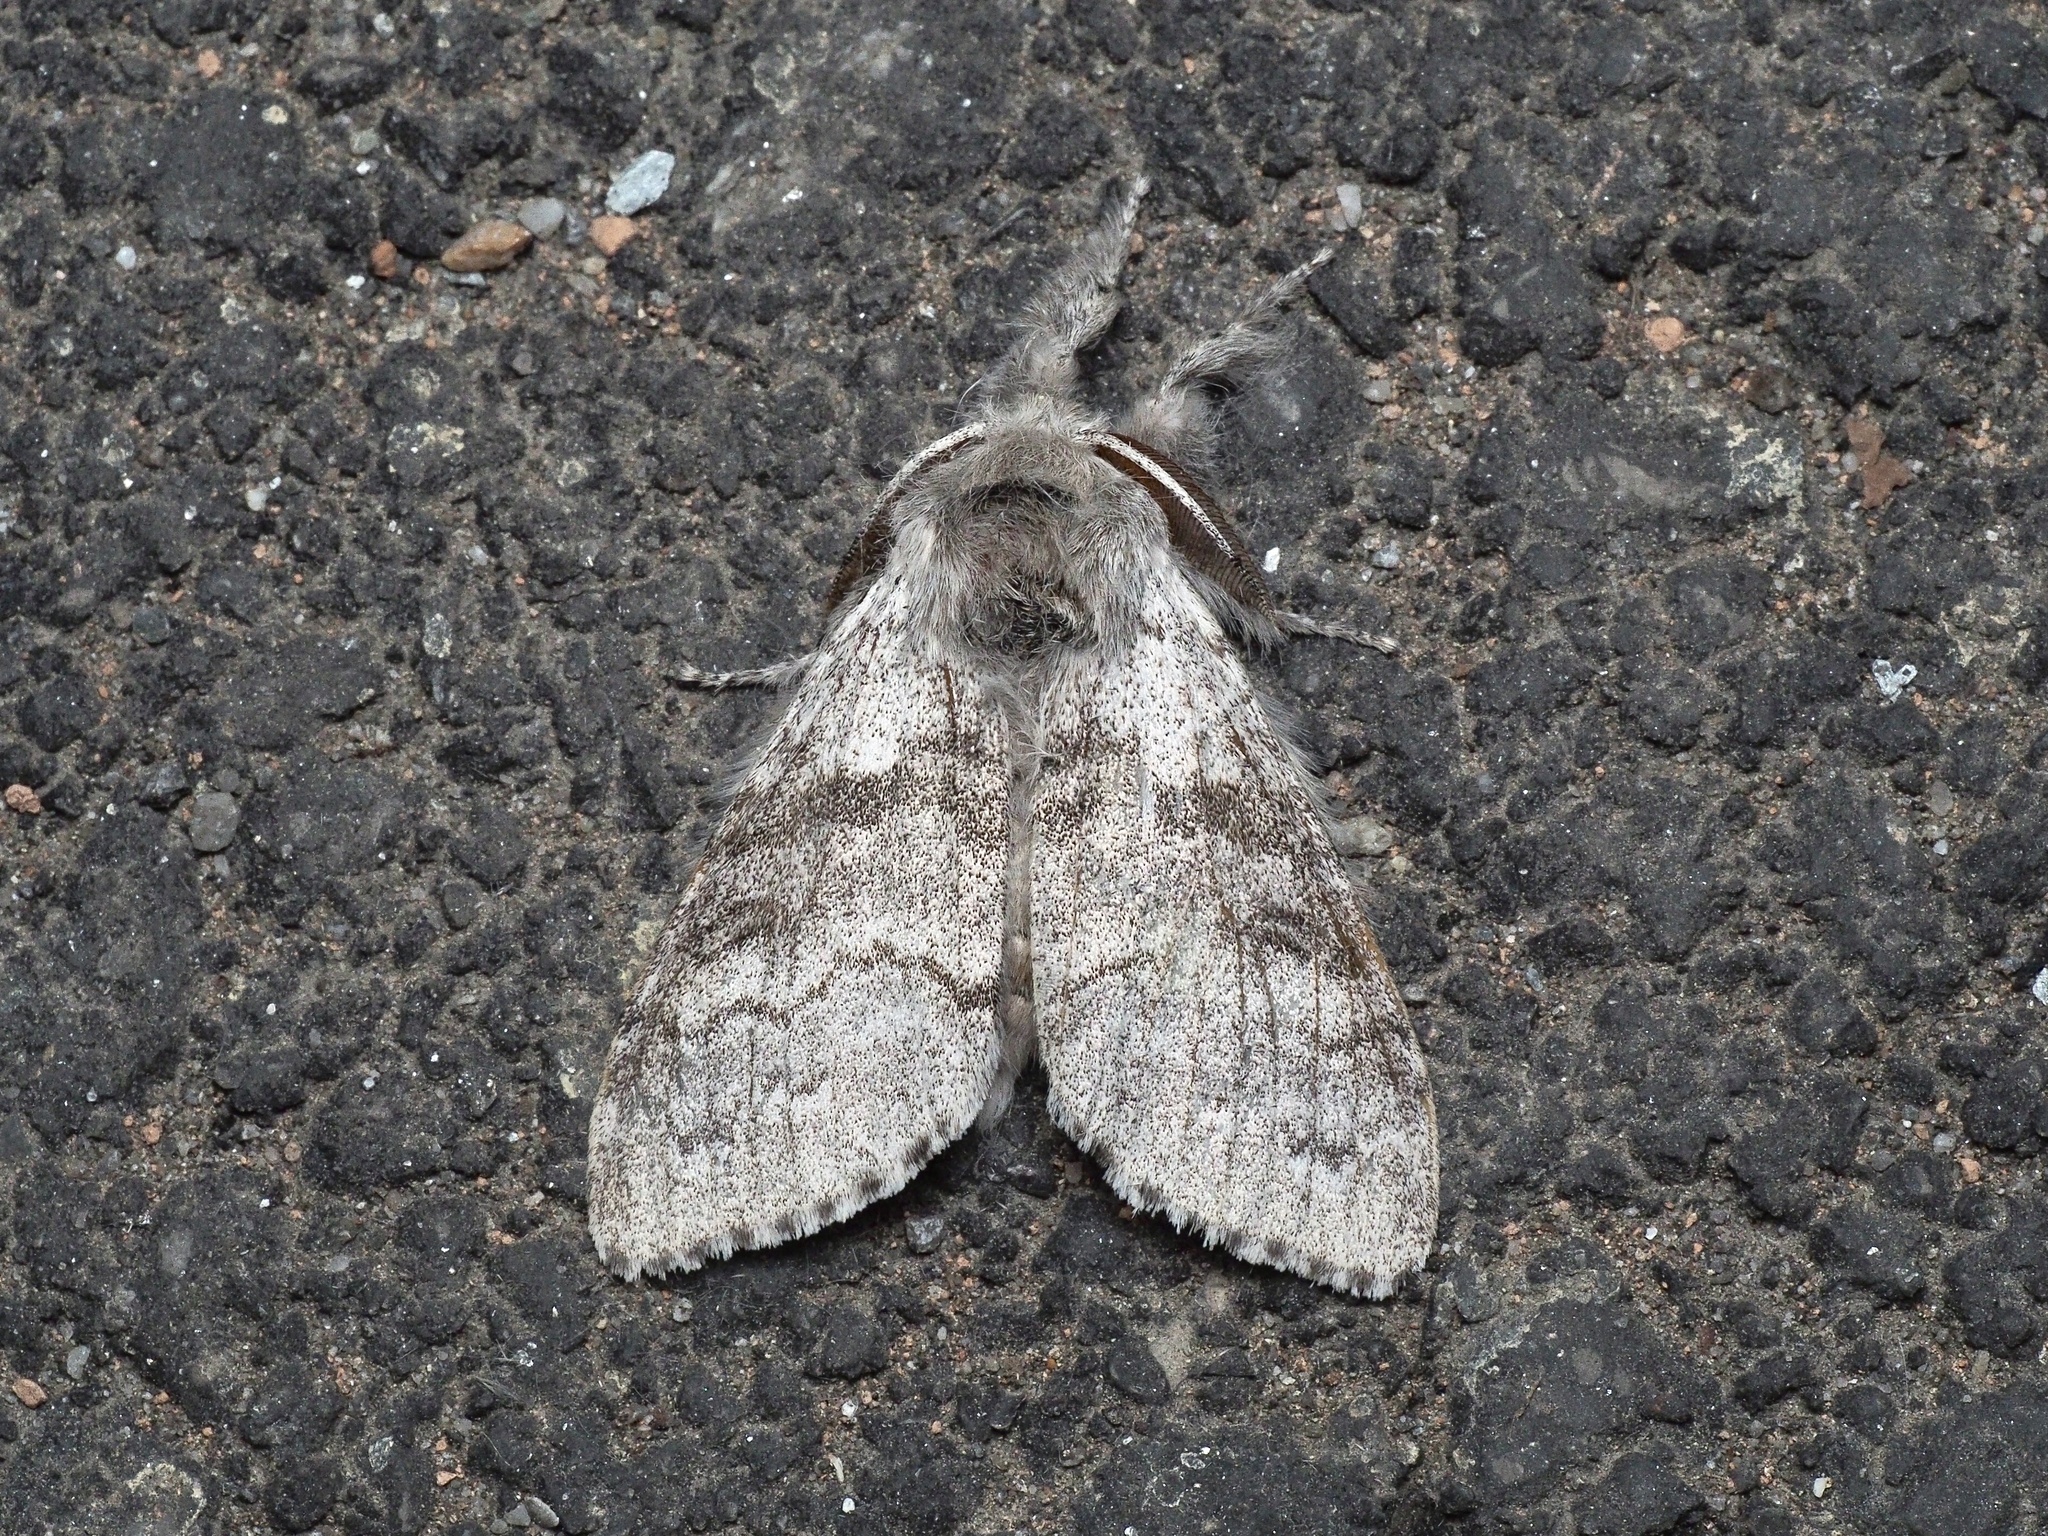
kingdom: Animalia
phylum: Arthropoda
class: Insecta
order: Lepidoptera
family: Erebidae
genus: Calliteara
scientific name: Calliteara pudibunda
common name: Pale tussock
